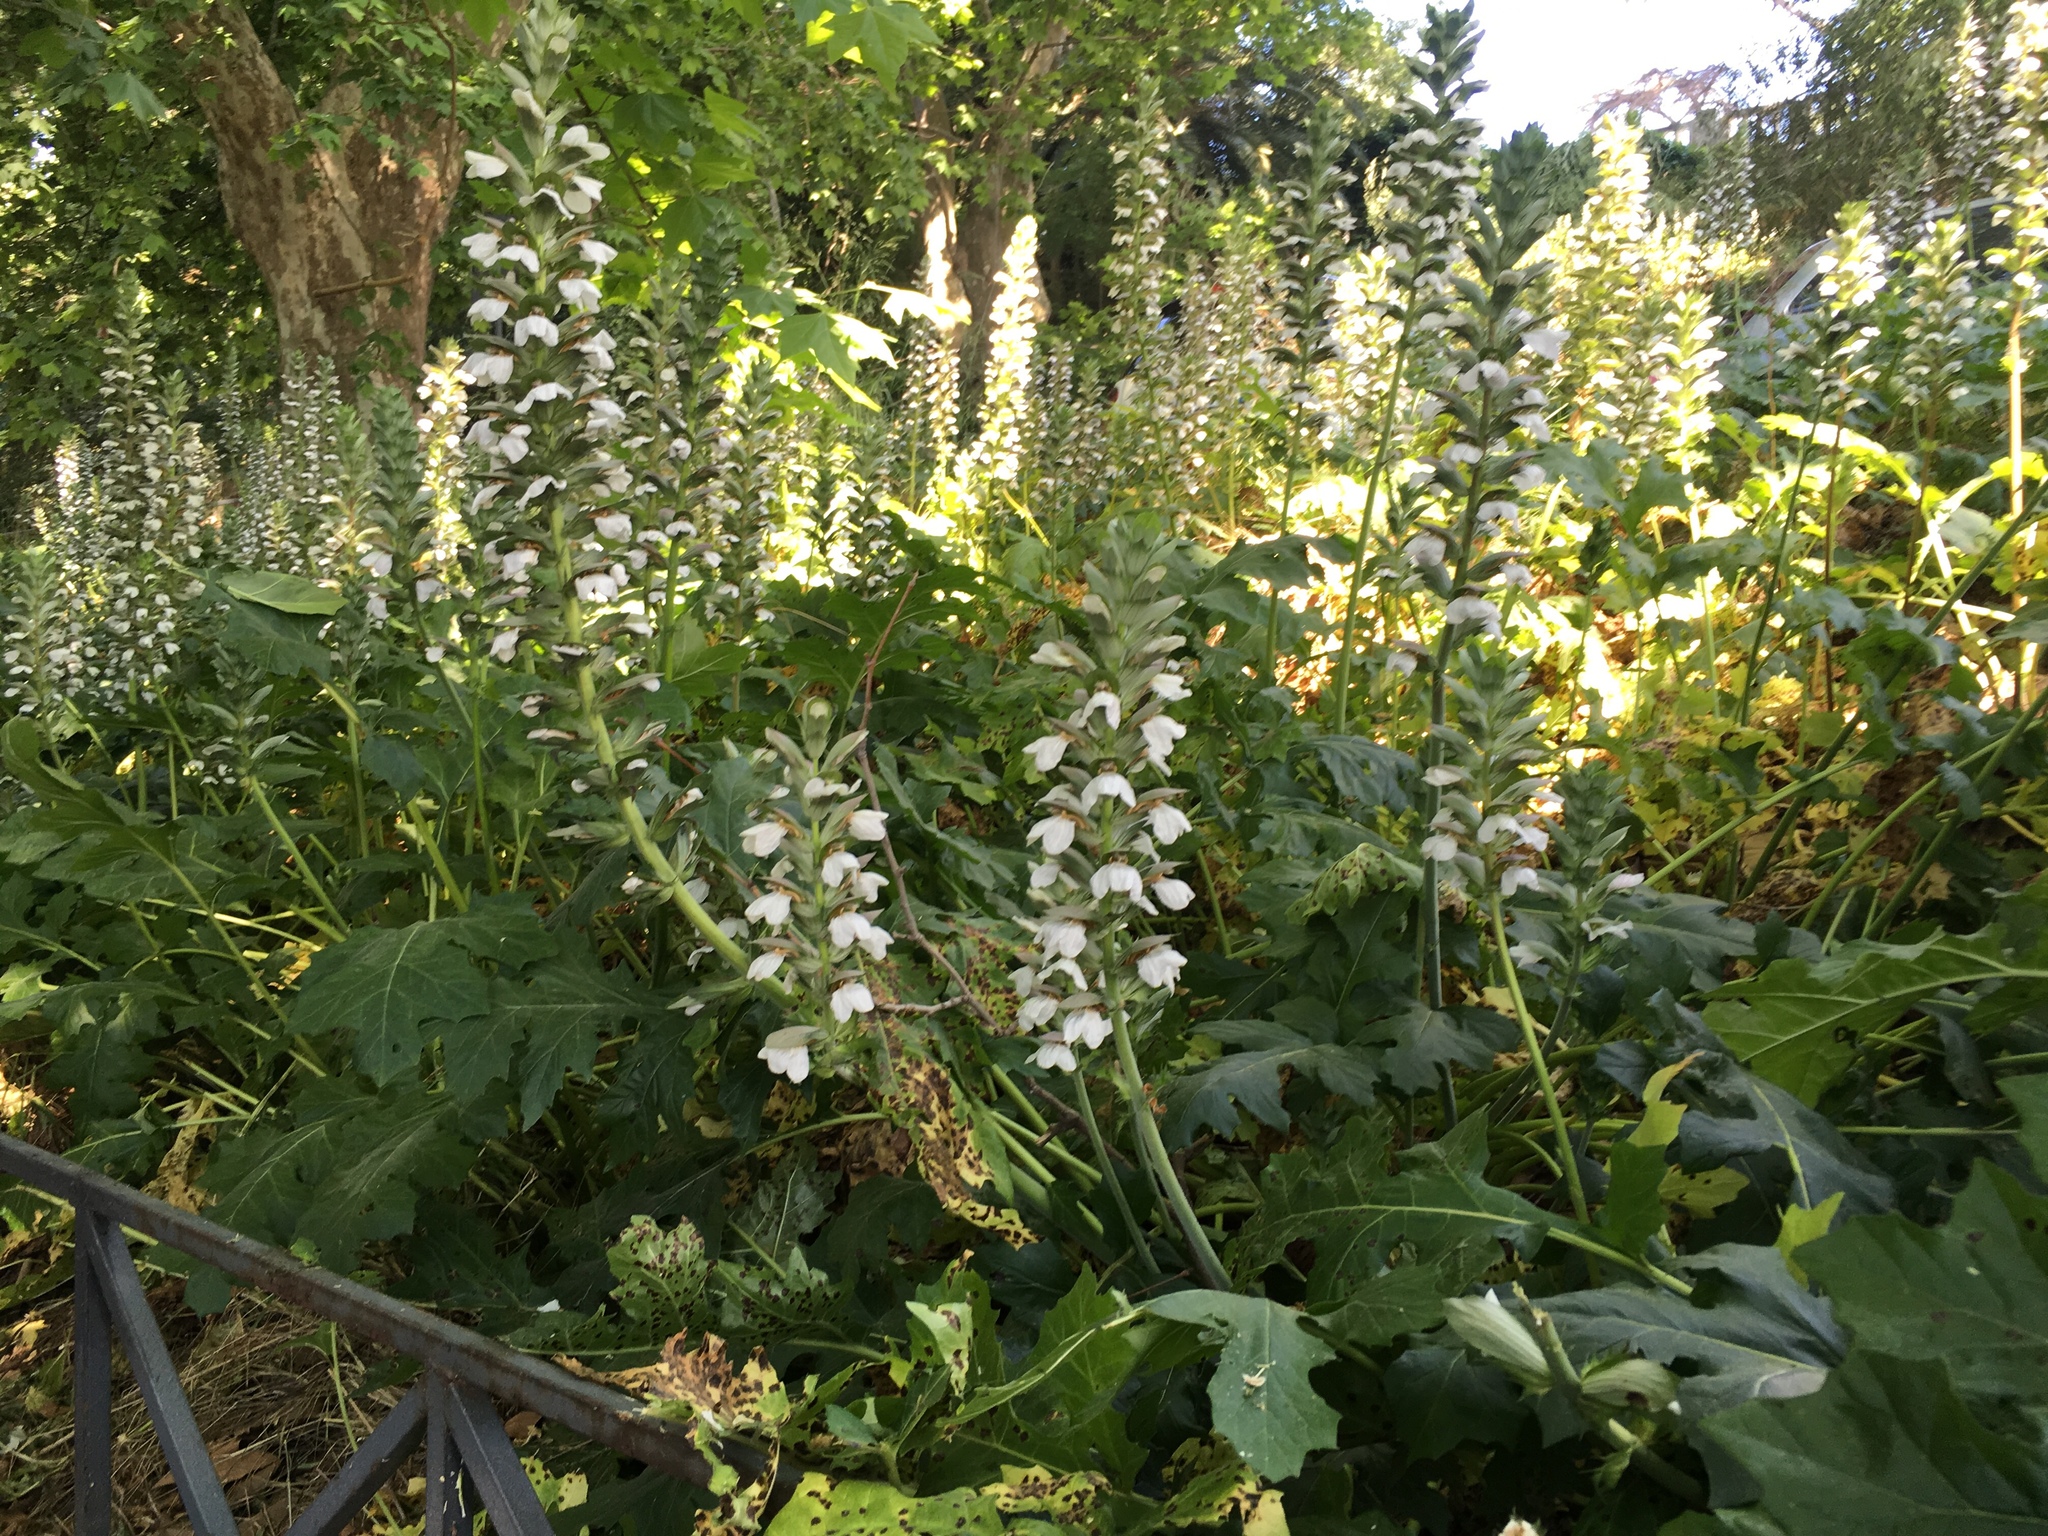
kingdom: Plantae
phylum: Tracheophyta
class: Magnoliopsida
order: Lamiales
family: Acanthaceae
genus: Acanthus
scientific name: Acanthus mollis
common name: Bear's-breech
